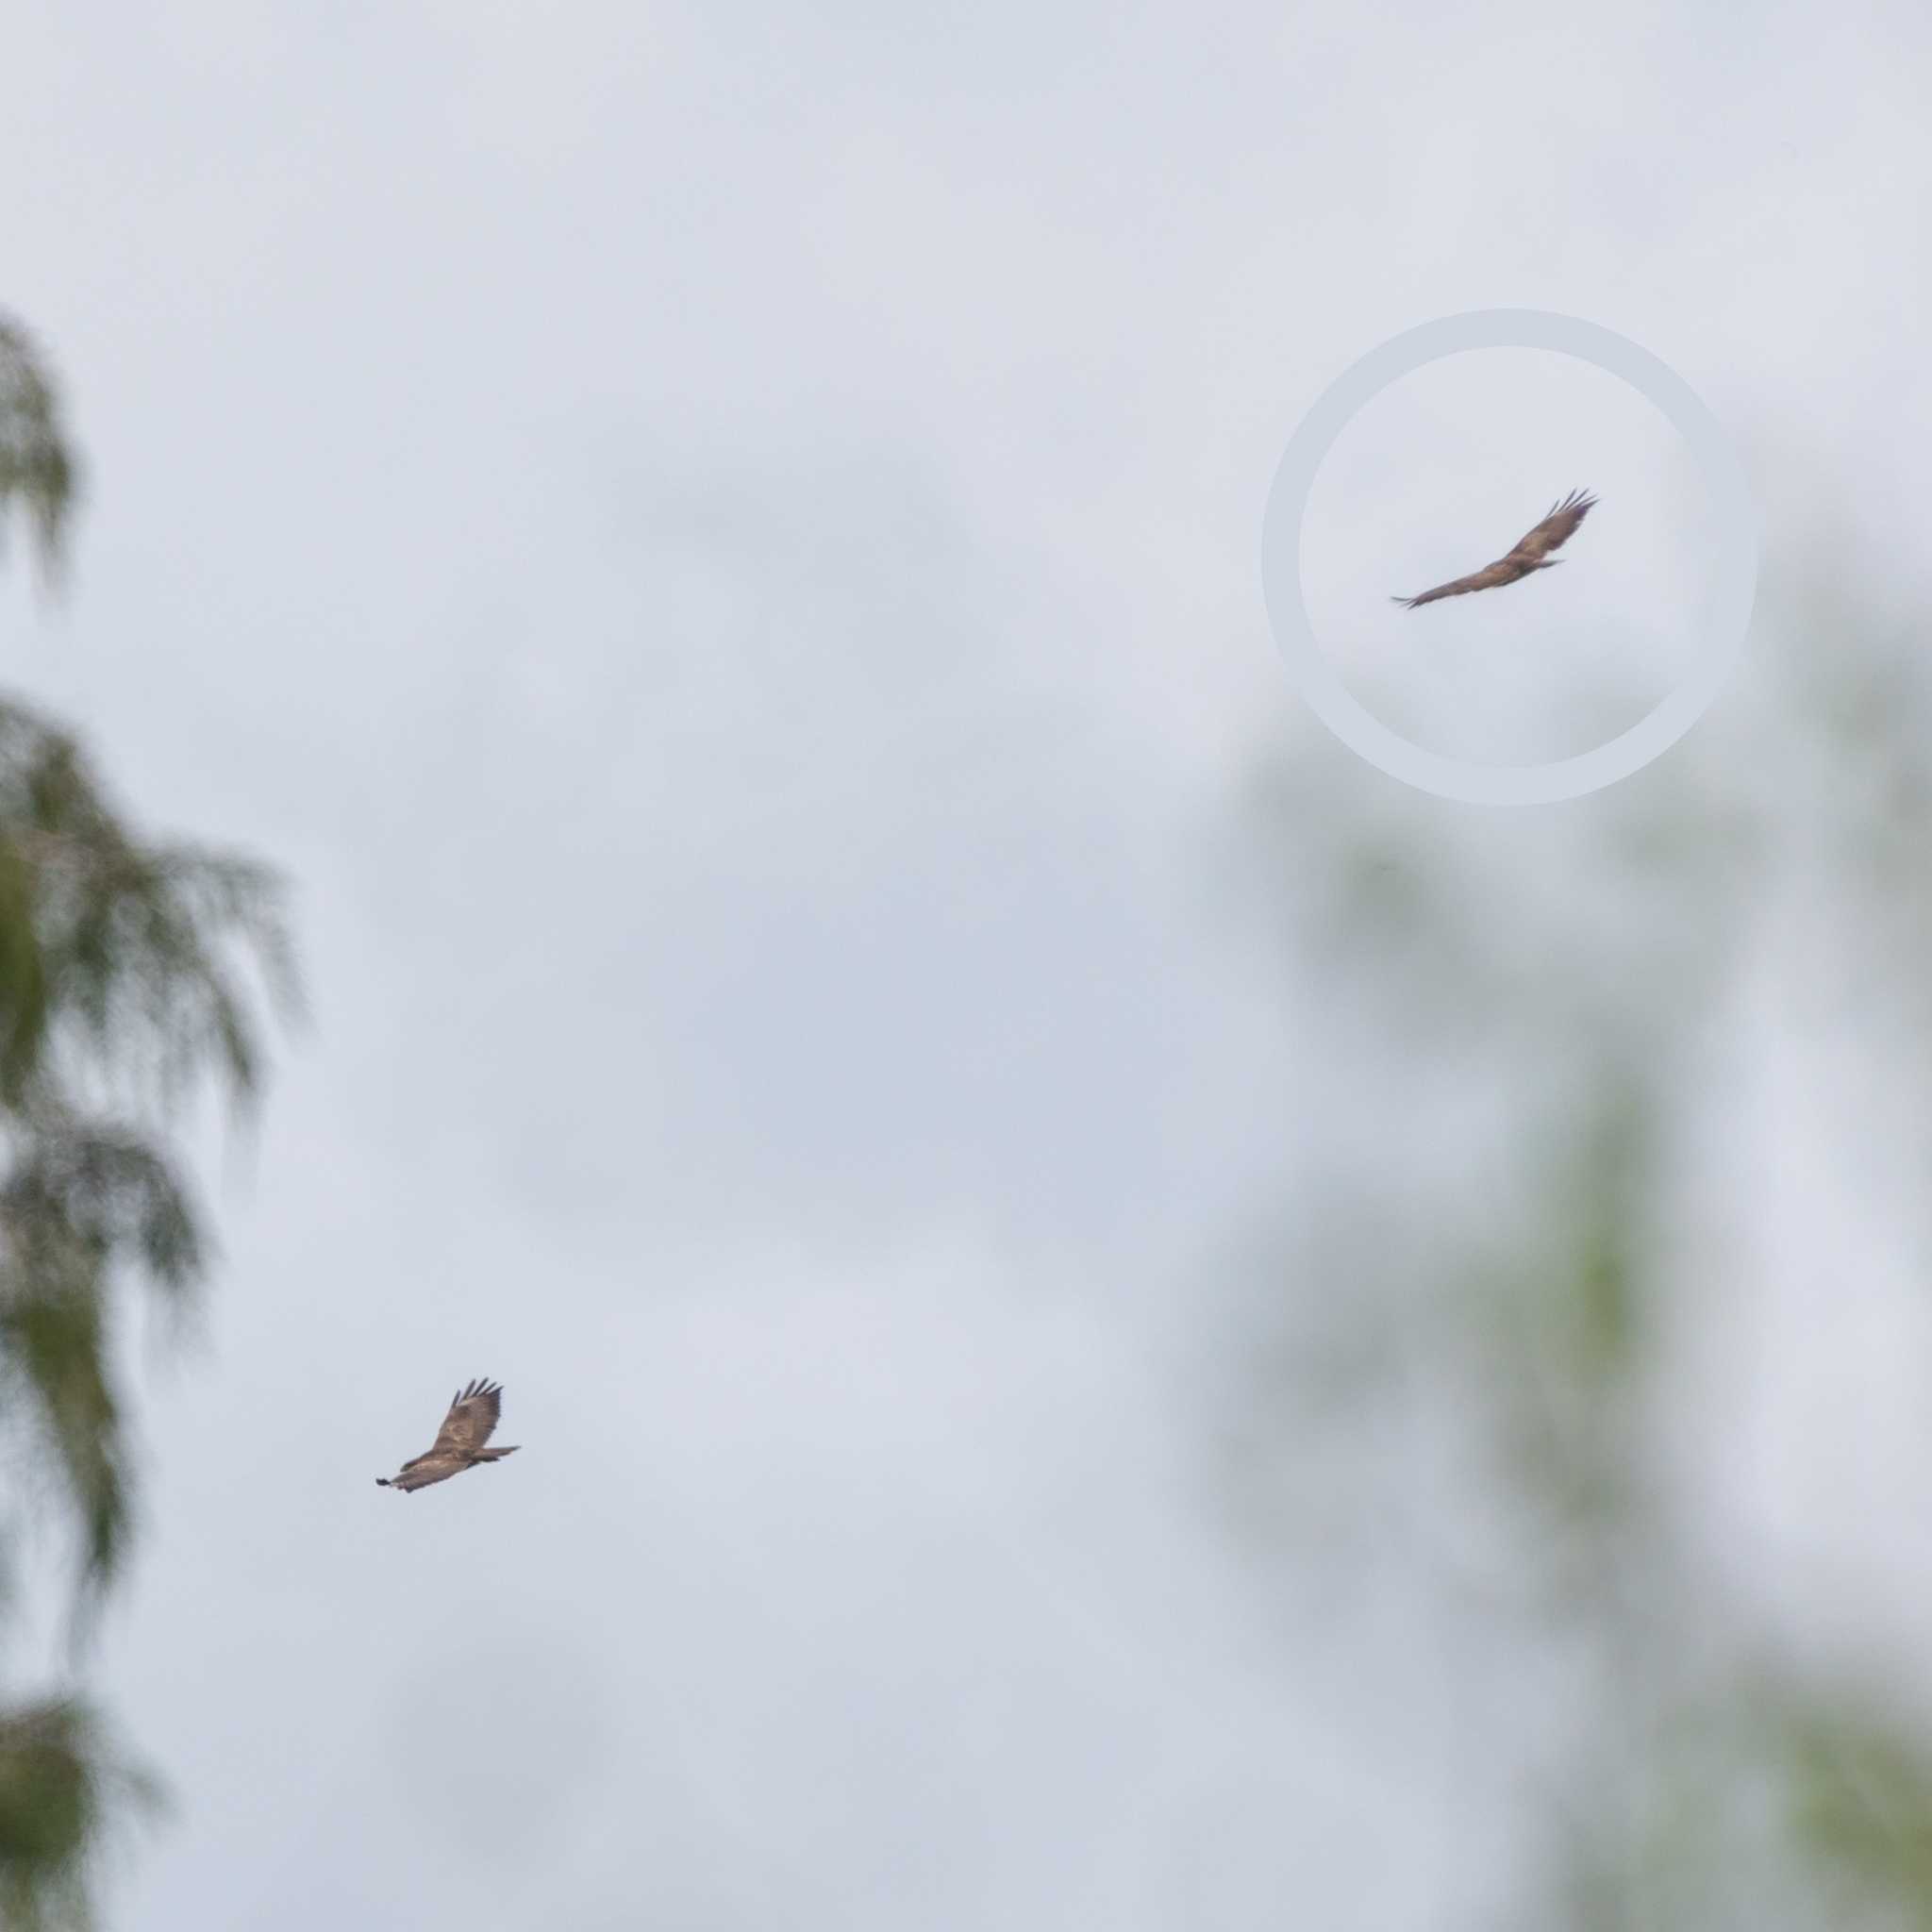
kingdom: Animalia
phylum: Chordata
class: Aves
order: Accipitriformes
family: Accipitridae
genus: Buteo
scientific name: Buteo buteo
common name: Common buzzard
